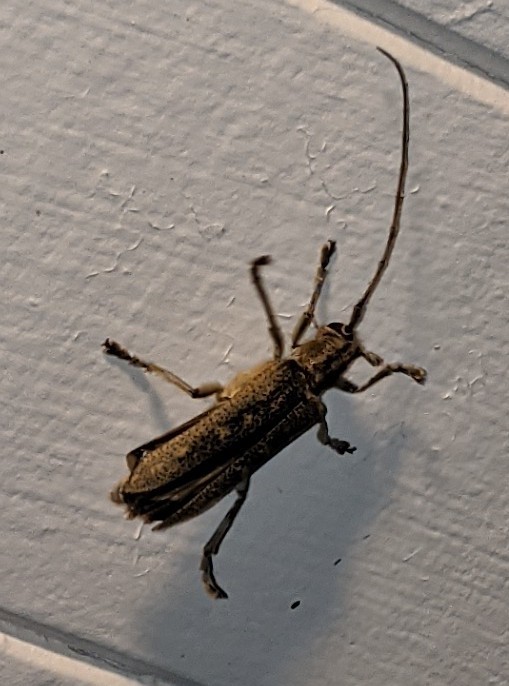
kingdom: Animalia
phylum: Arthropoda
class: Insecta
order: Coleoptera
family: Cerambycidae
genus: Saperda
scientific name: Saperda calcarata
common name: Poplar borer
